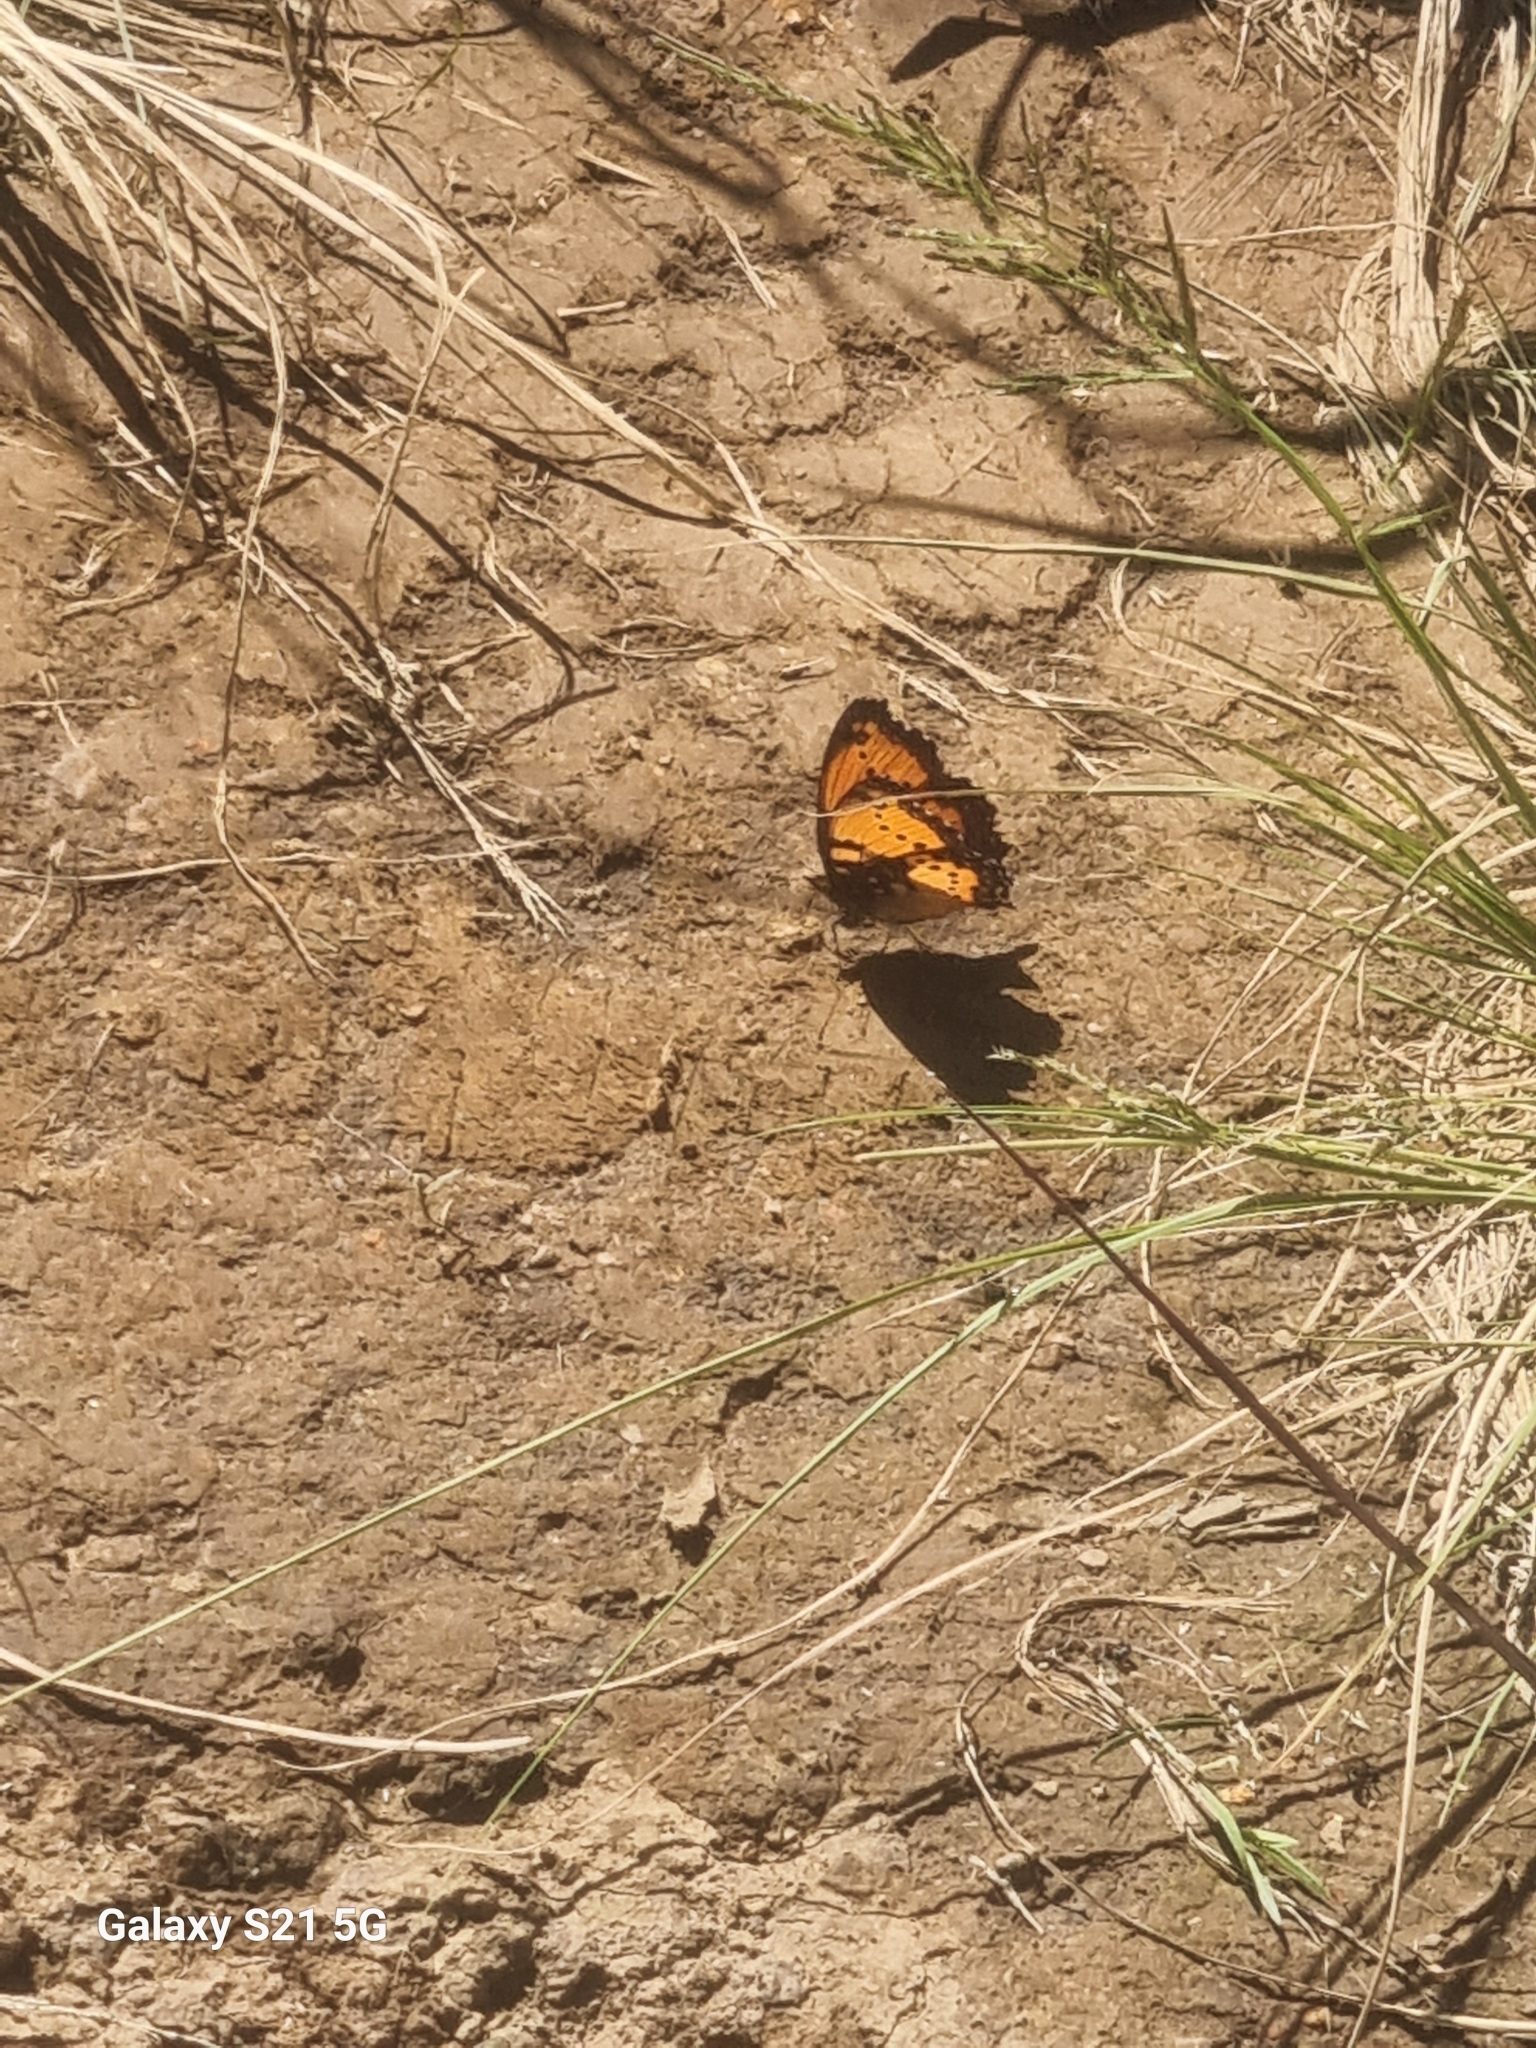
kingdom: Animalia
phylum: Arthropoda
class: Insecta
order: Lepidoptera
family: Nymphalidae
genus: Precis
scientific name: Precis octavia
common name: Gaudy commodore
